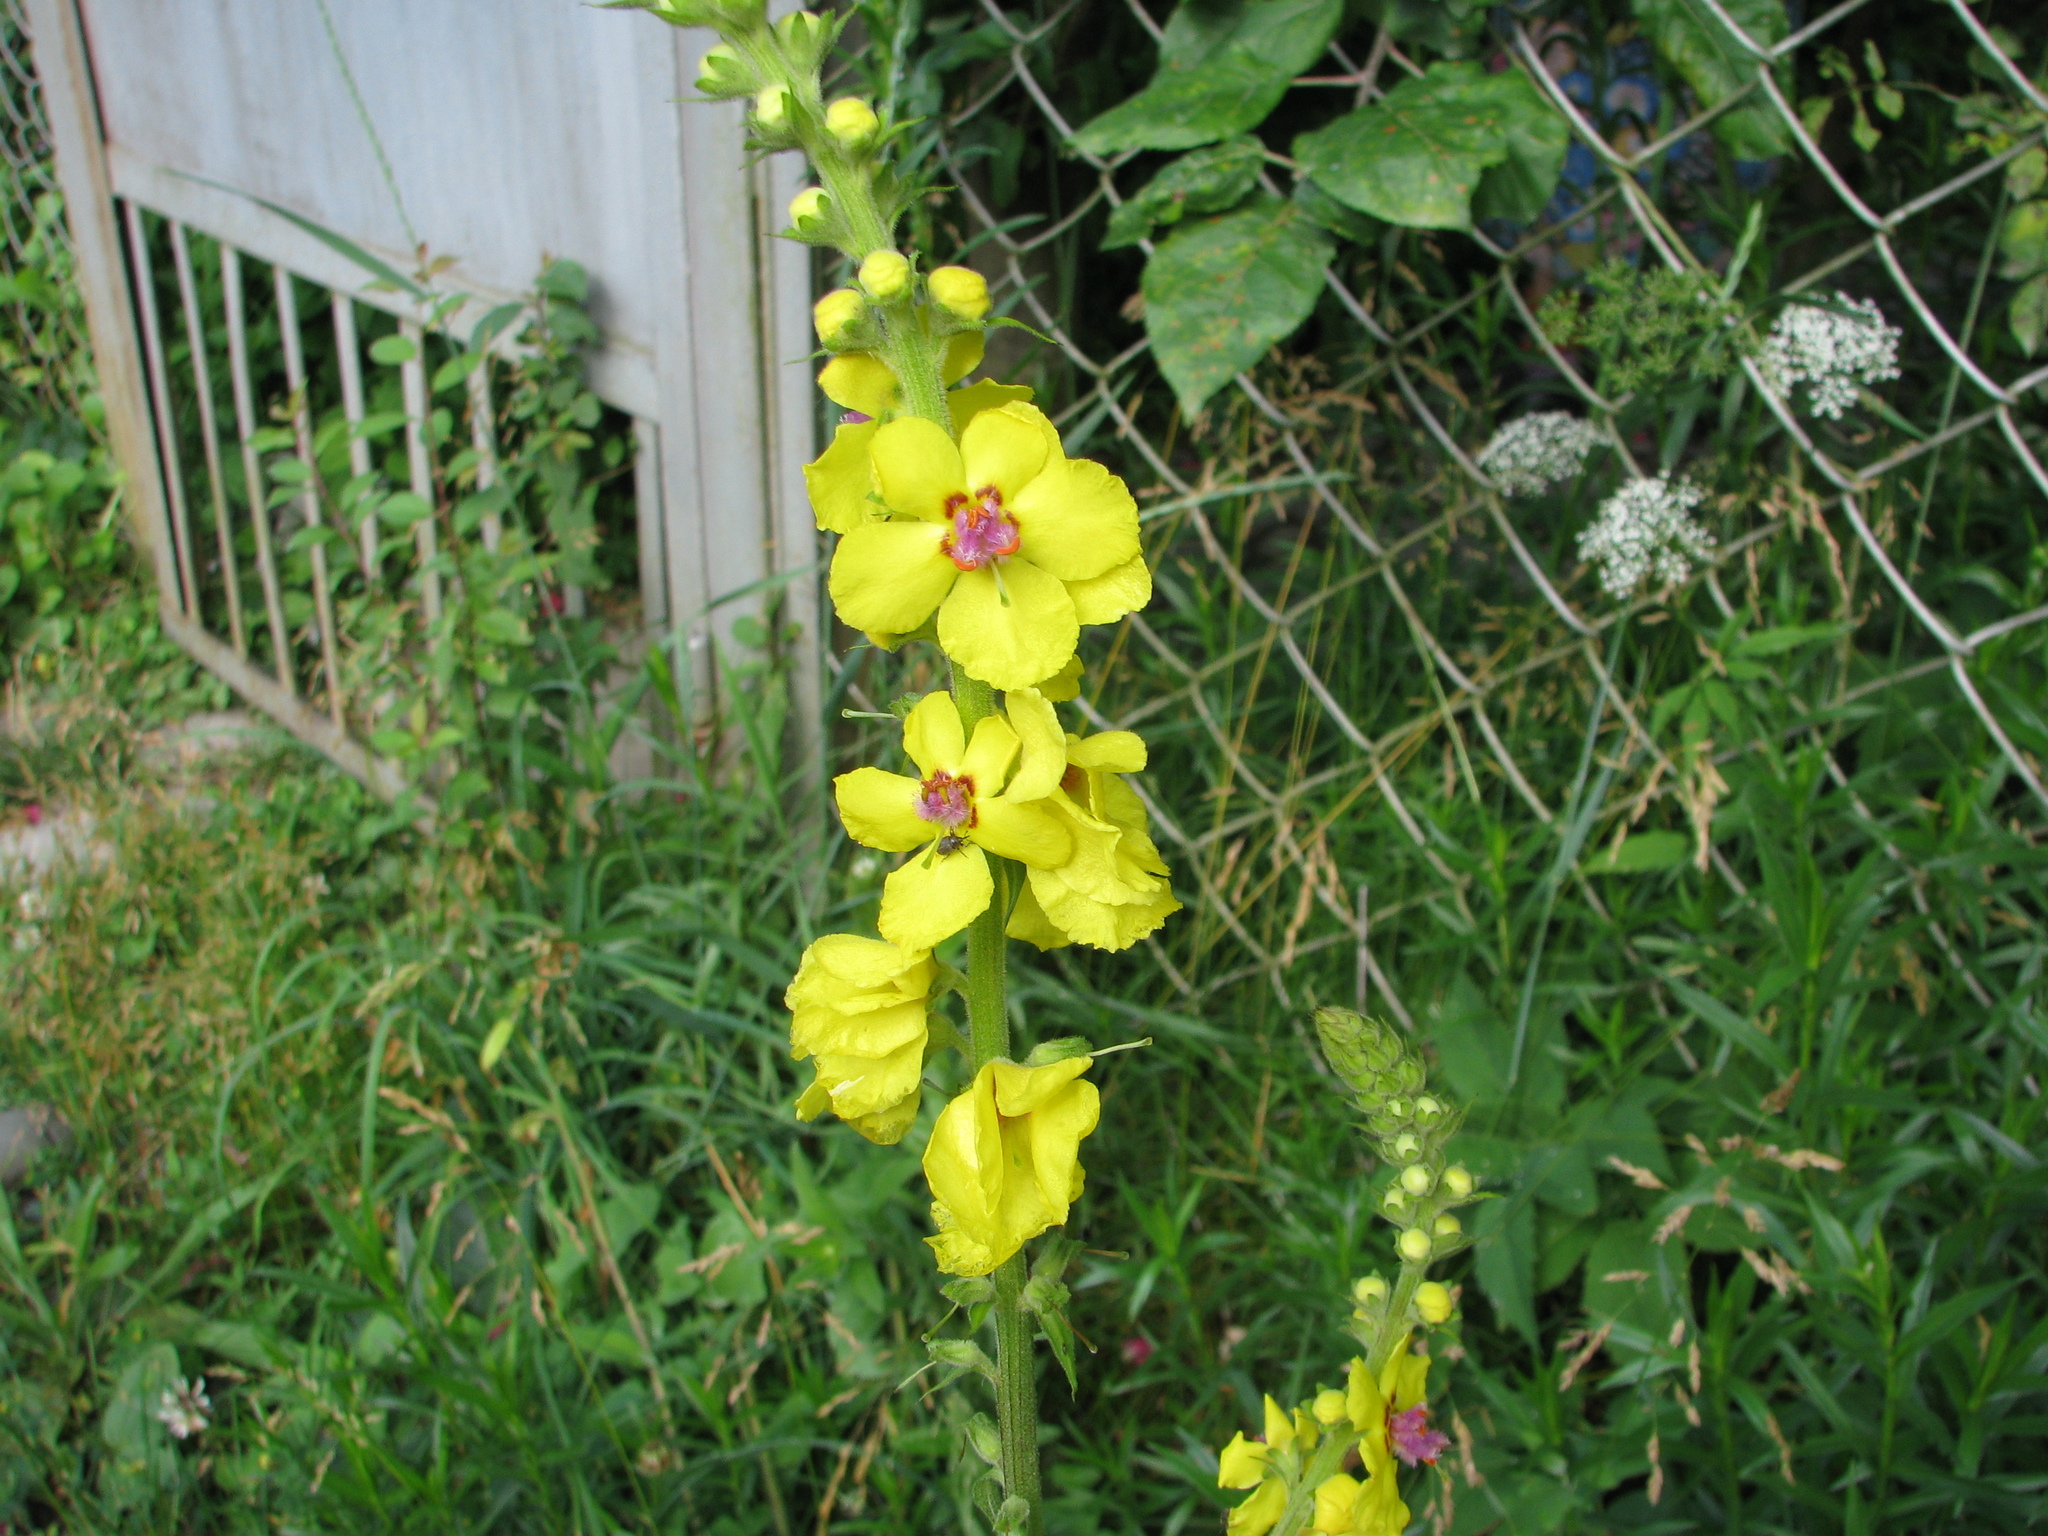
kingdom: Plantae
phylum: Tracheophyta
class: Magnoliopsida
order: Lamiales
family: Scrophulariaceae
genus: Verbascum
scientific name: Verbascum pyramidatum
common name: Caucasian mullein
